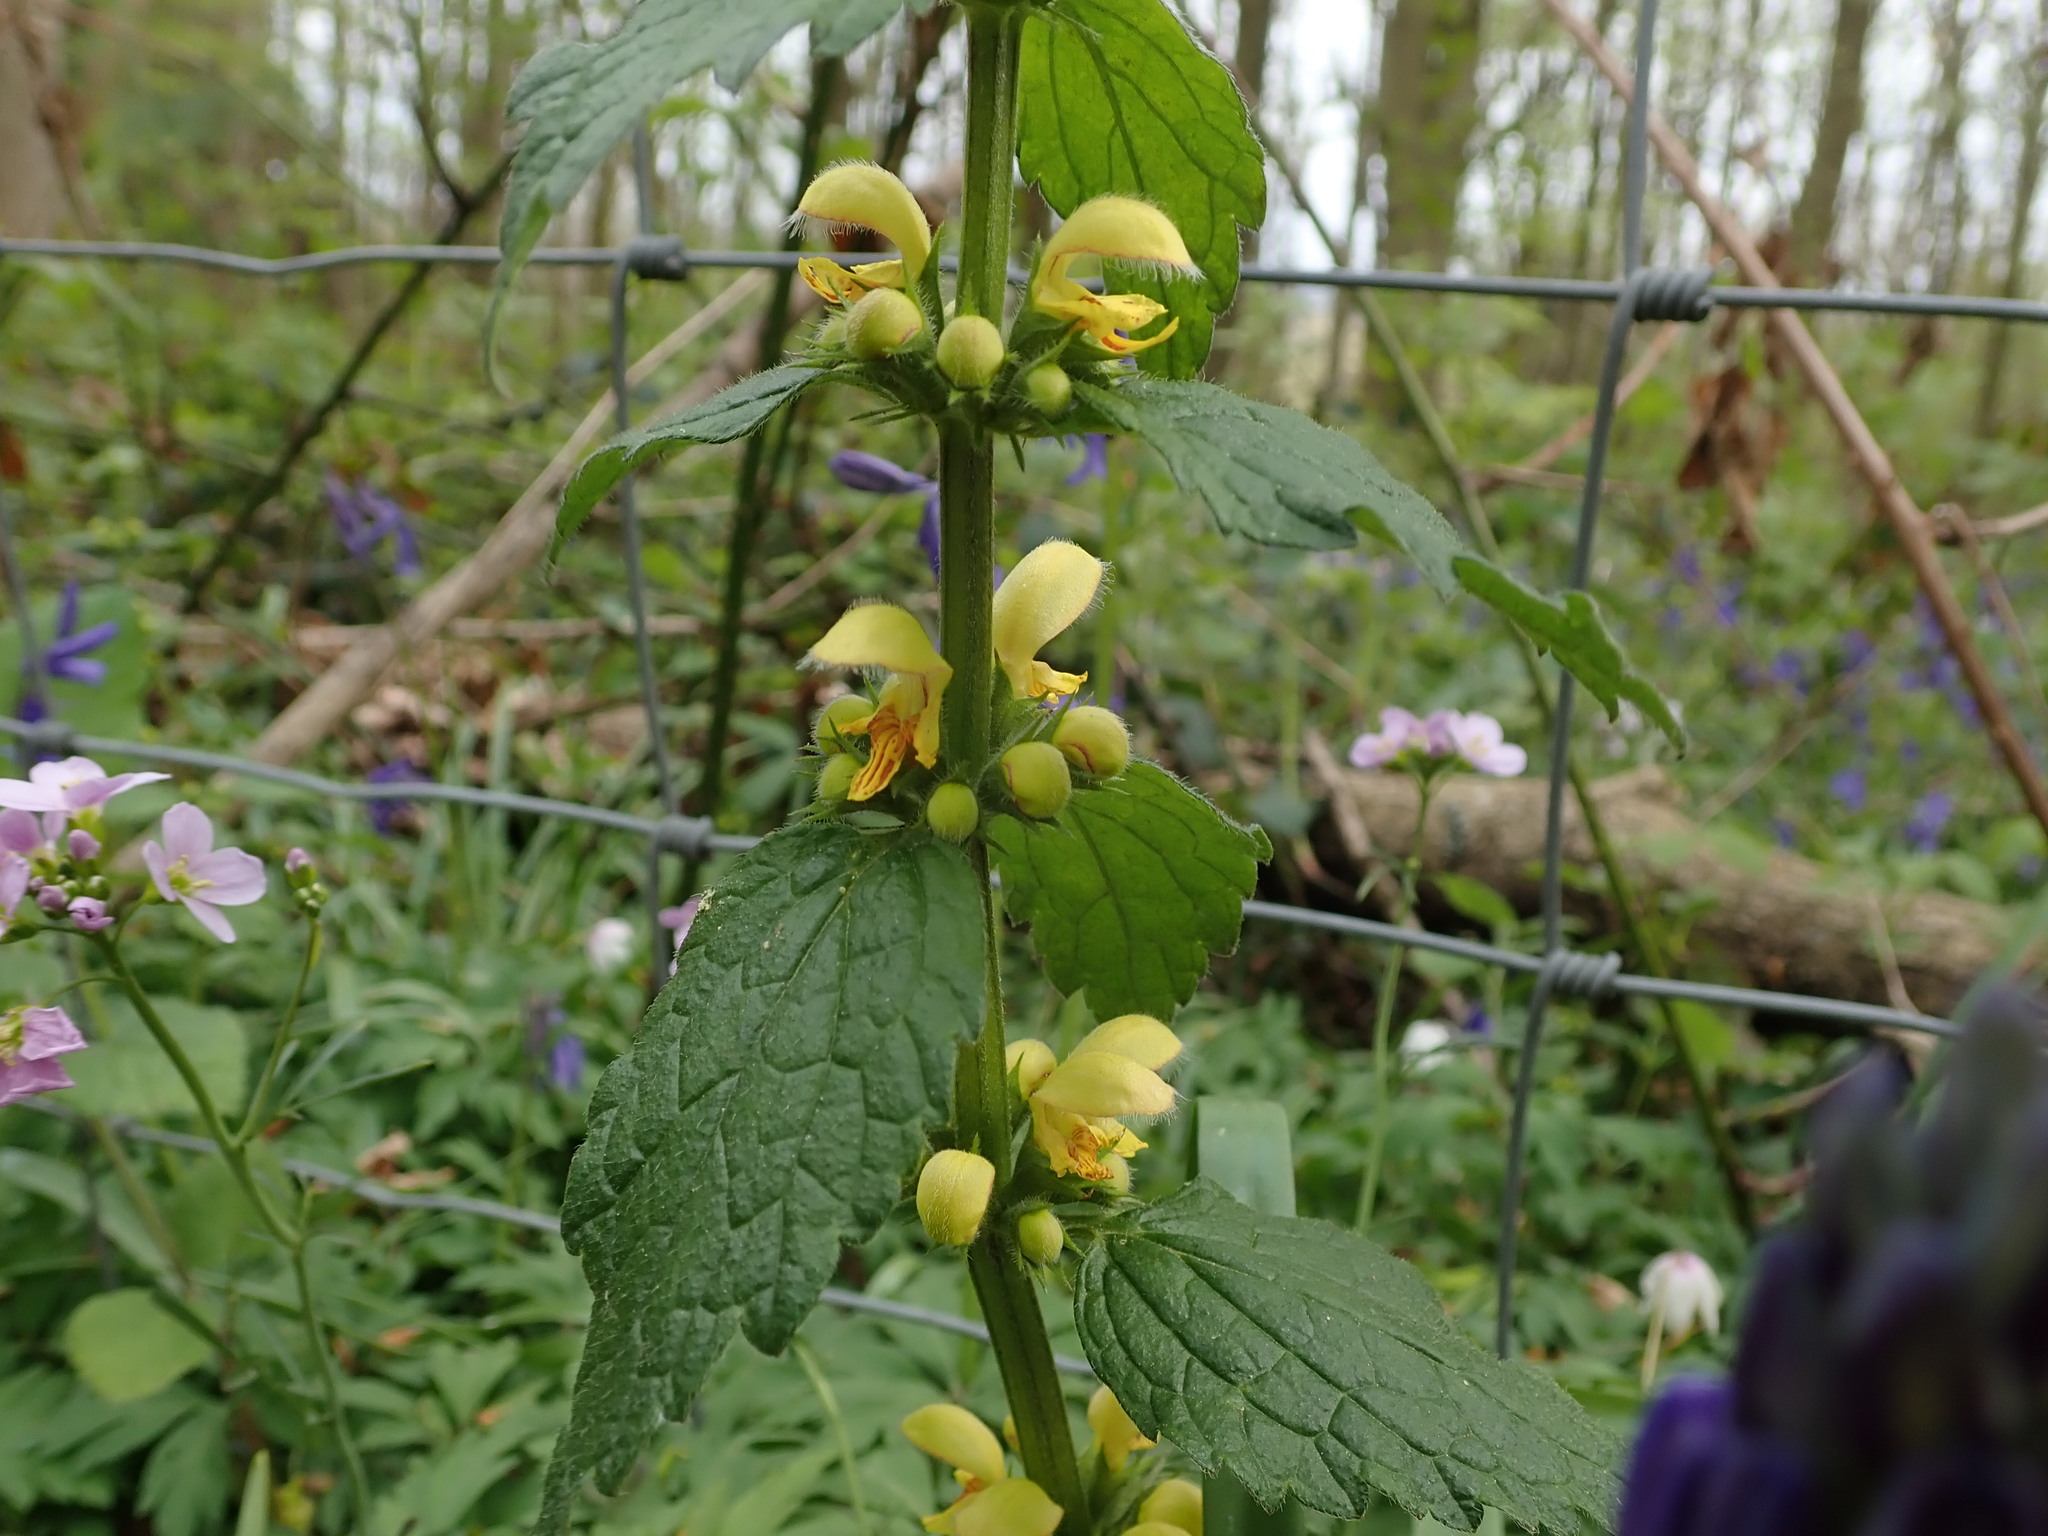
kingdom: Plantae
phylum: Tracheophyta
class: Magnoliopsida
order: Lamiales
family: Lamiaceae
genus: Lamium
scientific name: Lamium galeobdolon
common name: Yellow archangel
